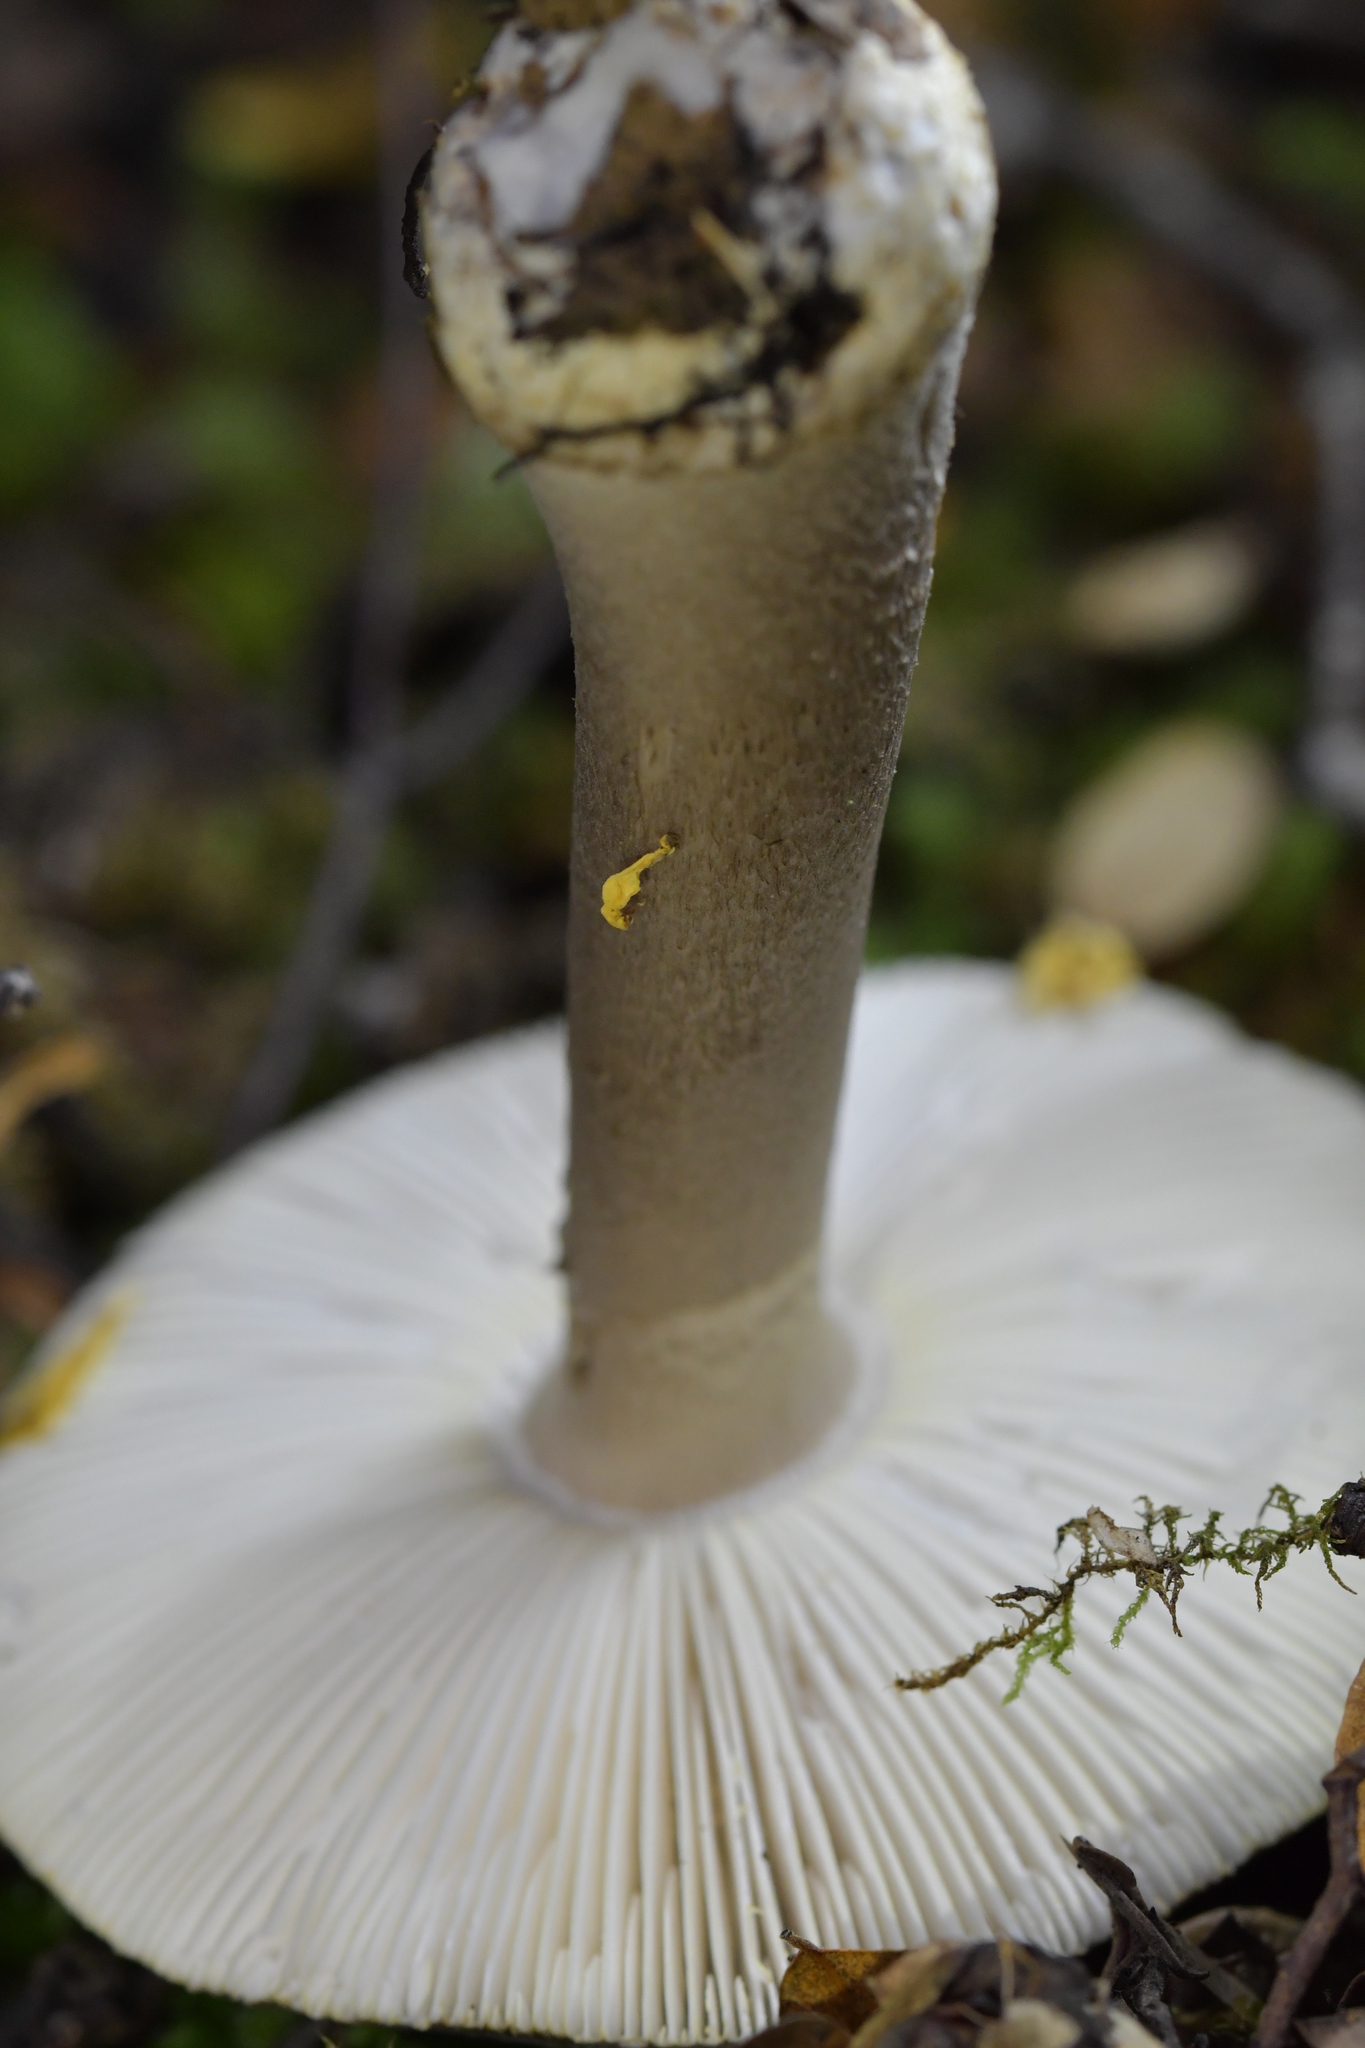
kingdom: Fungi
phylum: Basidiomycota
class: Agaricomycetes
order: Agaricales
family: Amanitaceae
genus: Amanita
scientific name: Amanita nothofagi
